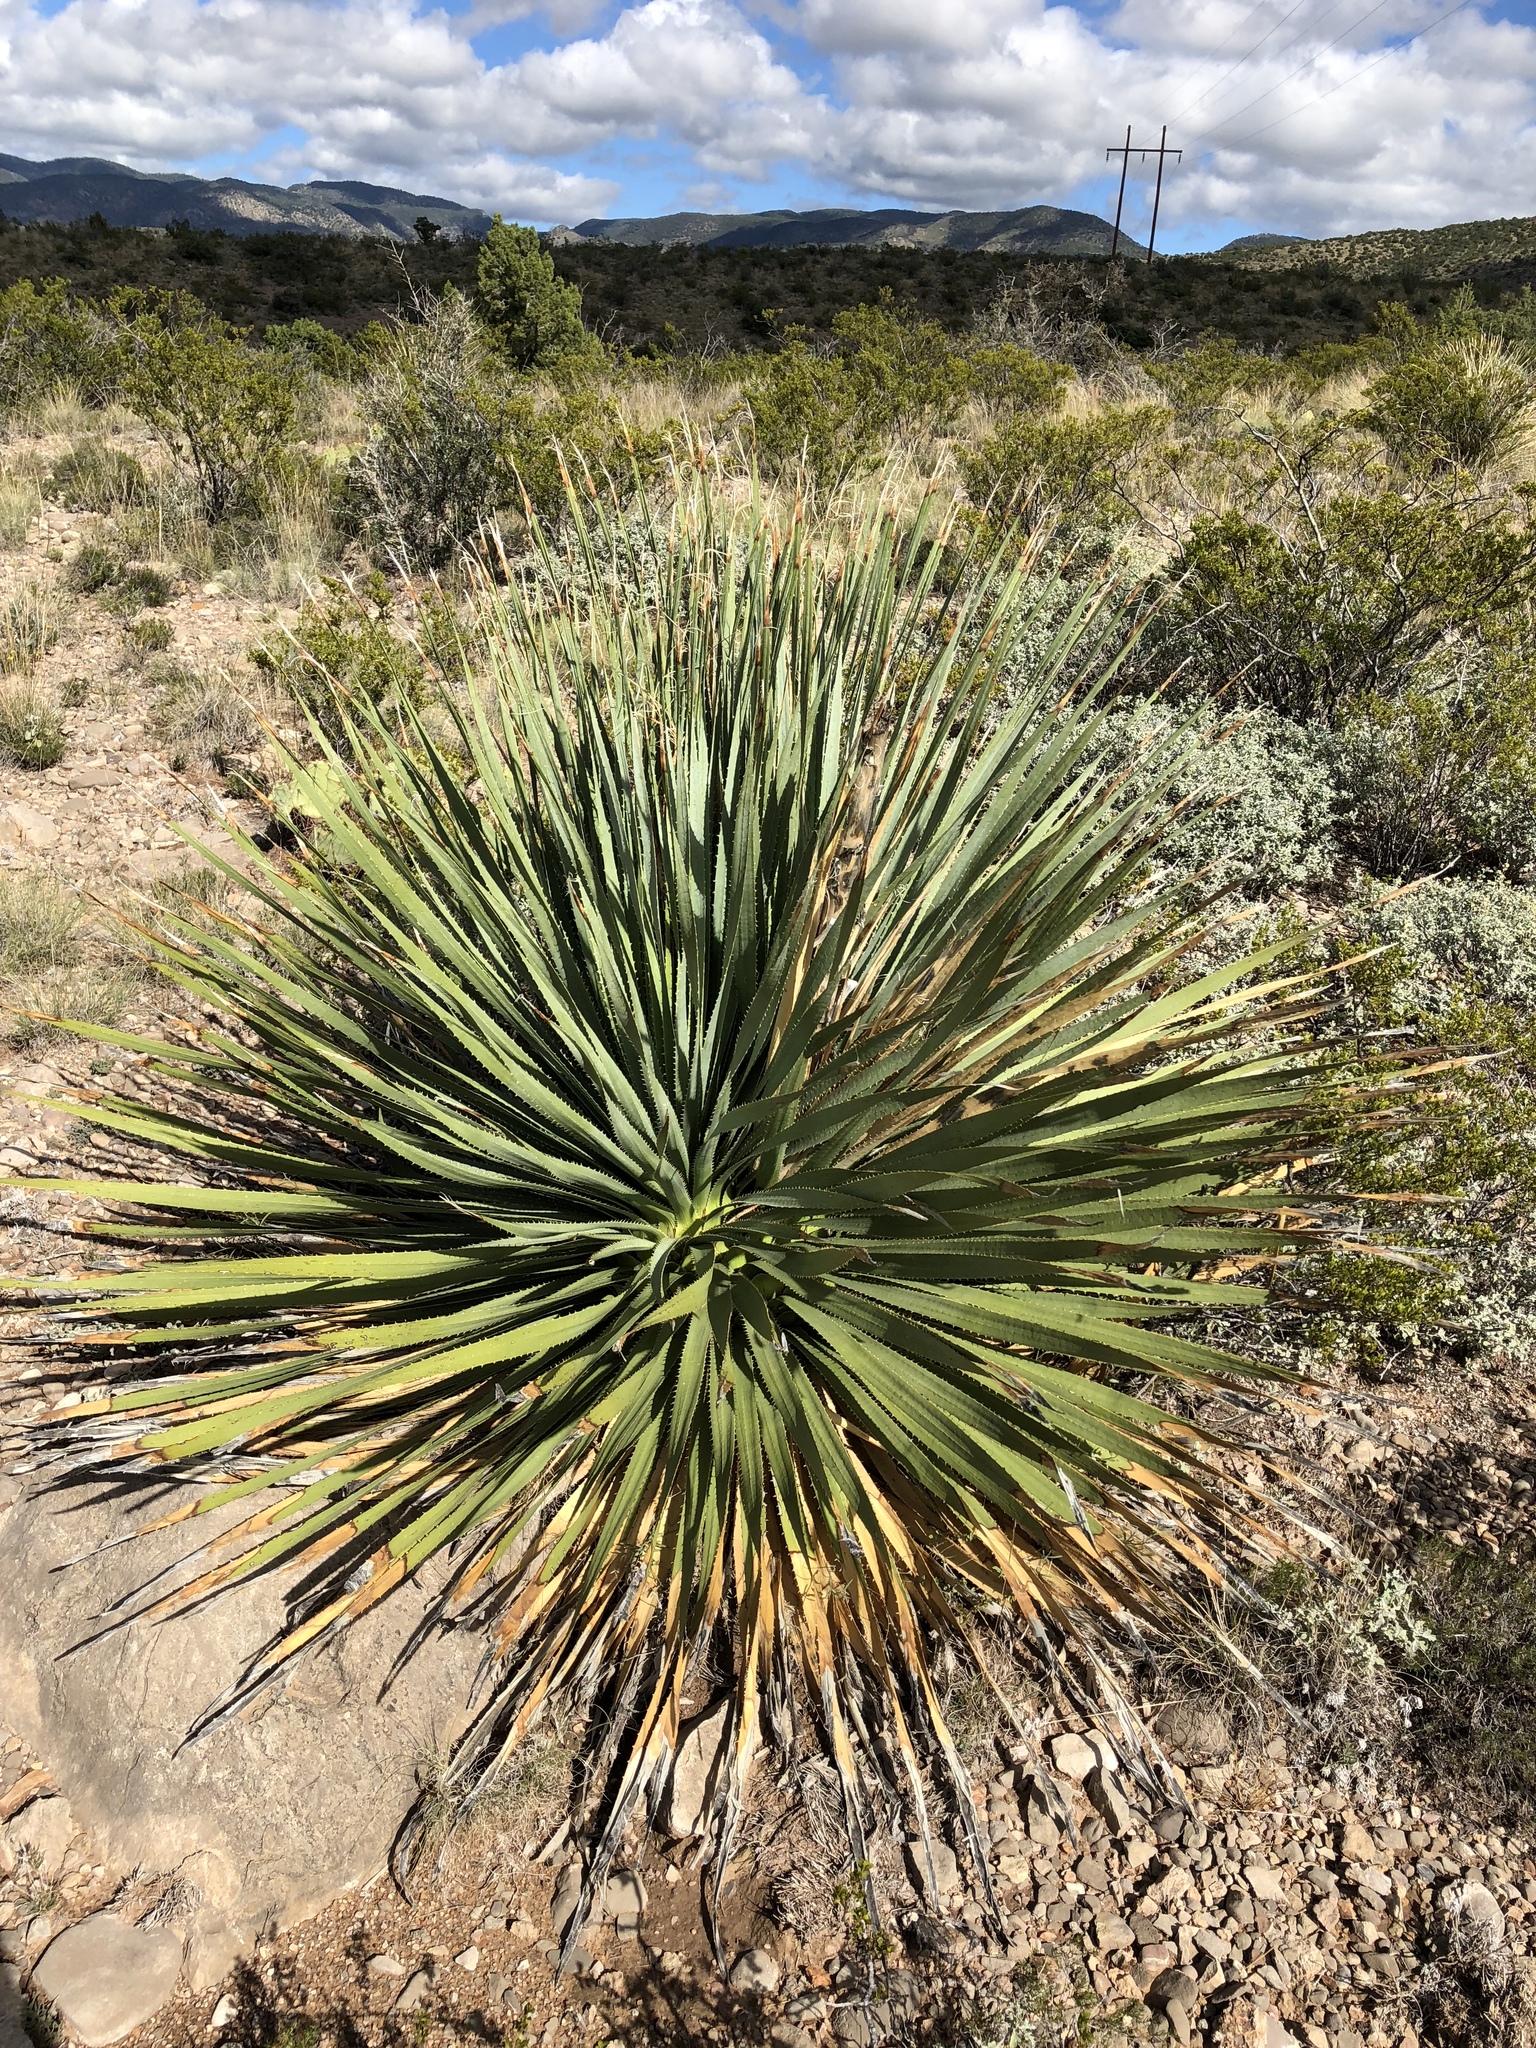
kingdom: Plantae
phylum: Tracheophyta
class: Liliopsida
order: Asparagales
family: Asparagaceae
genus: Dasylirion
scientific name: Dasylirion wheeleri
